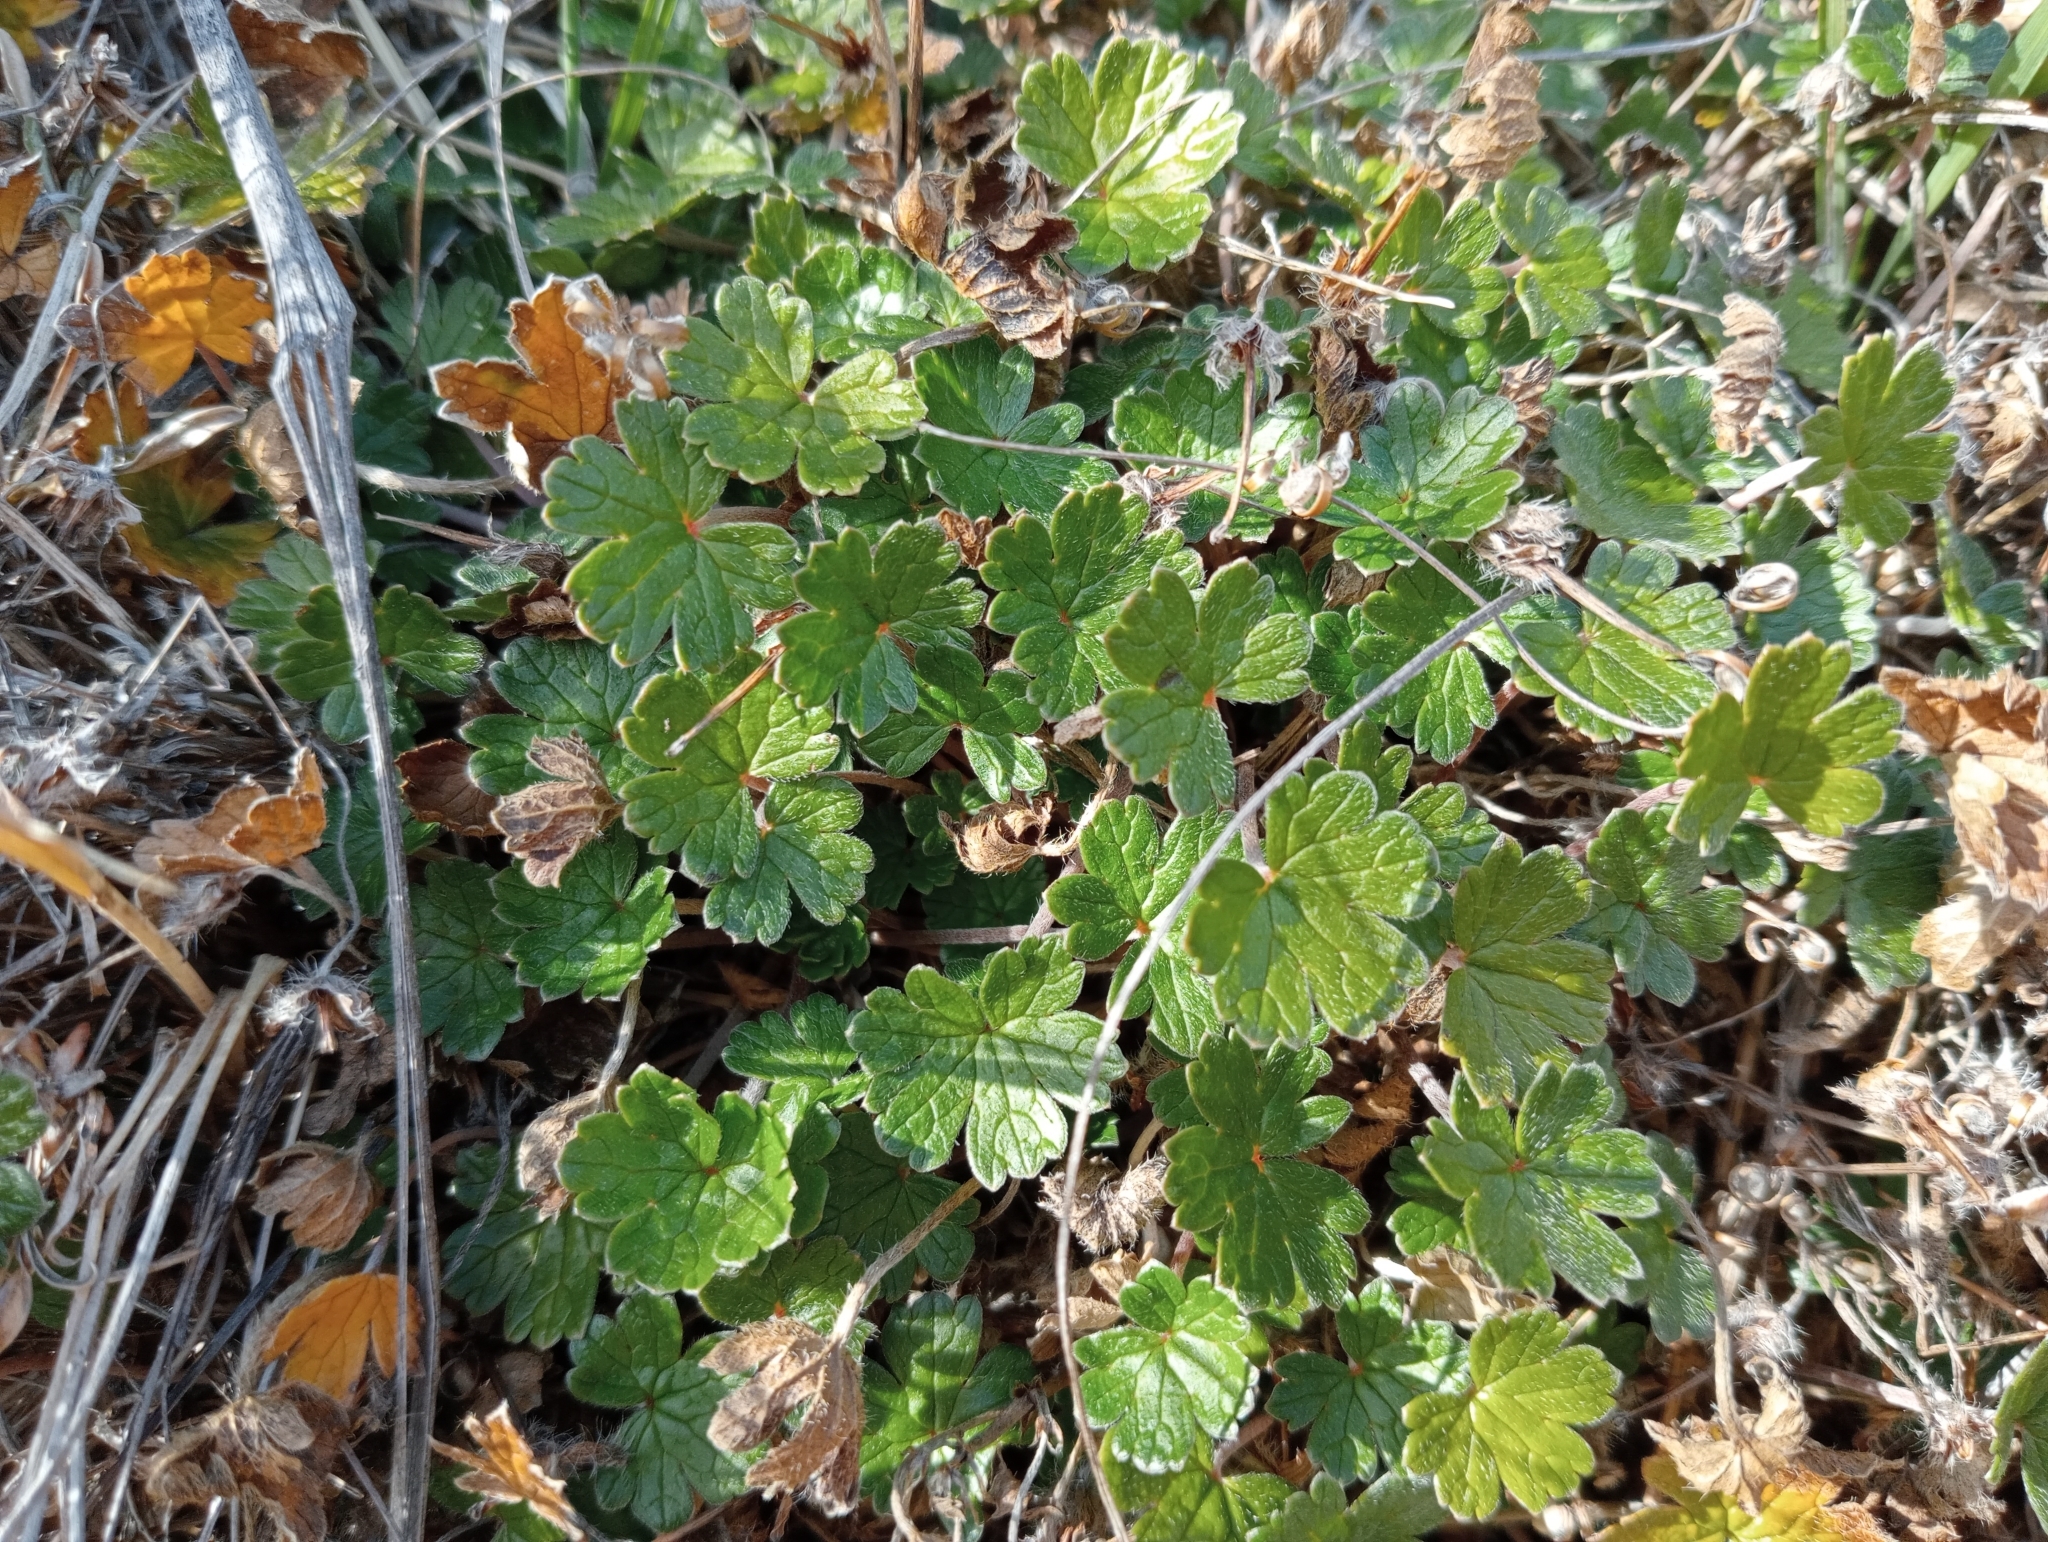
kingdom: Plantae
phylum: Tracheophyta
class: Magnoliopsida
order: Geraniales
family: Geraniaceae
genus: Geranium
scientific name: Geranium brevicaule
